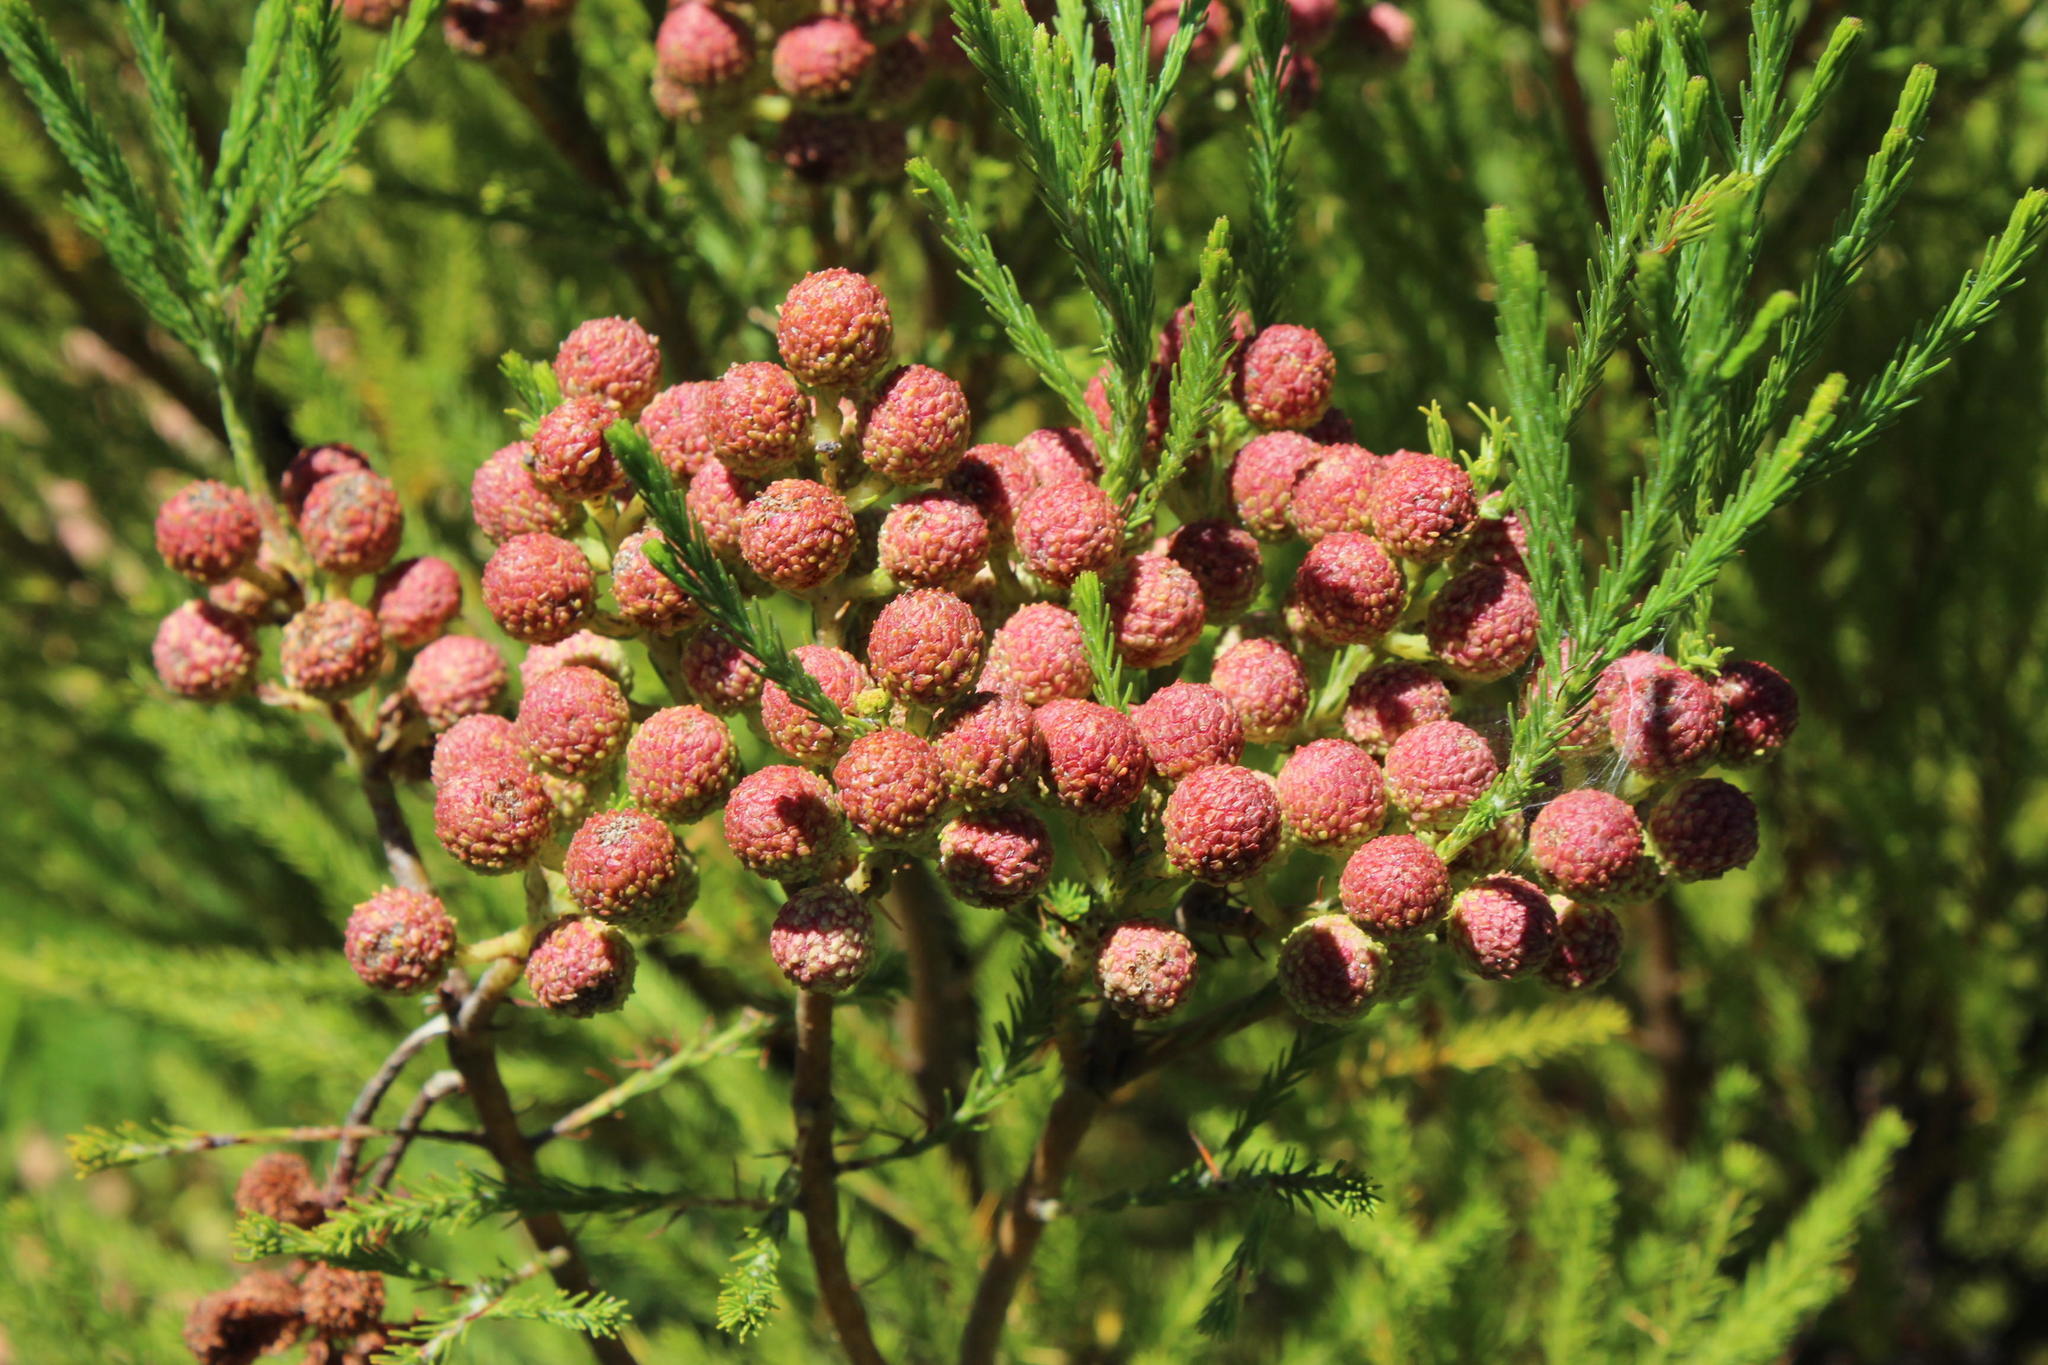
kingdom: Plantae
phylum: Tracheophyta
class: Magnoliopsida
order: Bruniales
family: Bruniaceae
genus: Berzelia
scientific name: Berzelia lanuginosa
